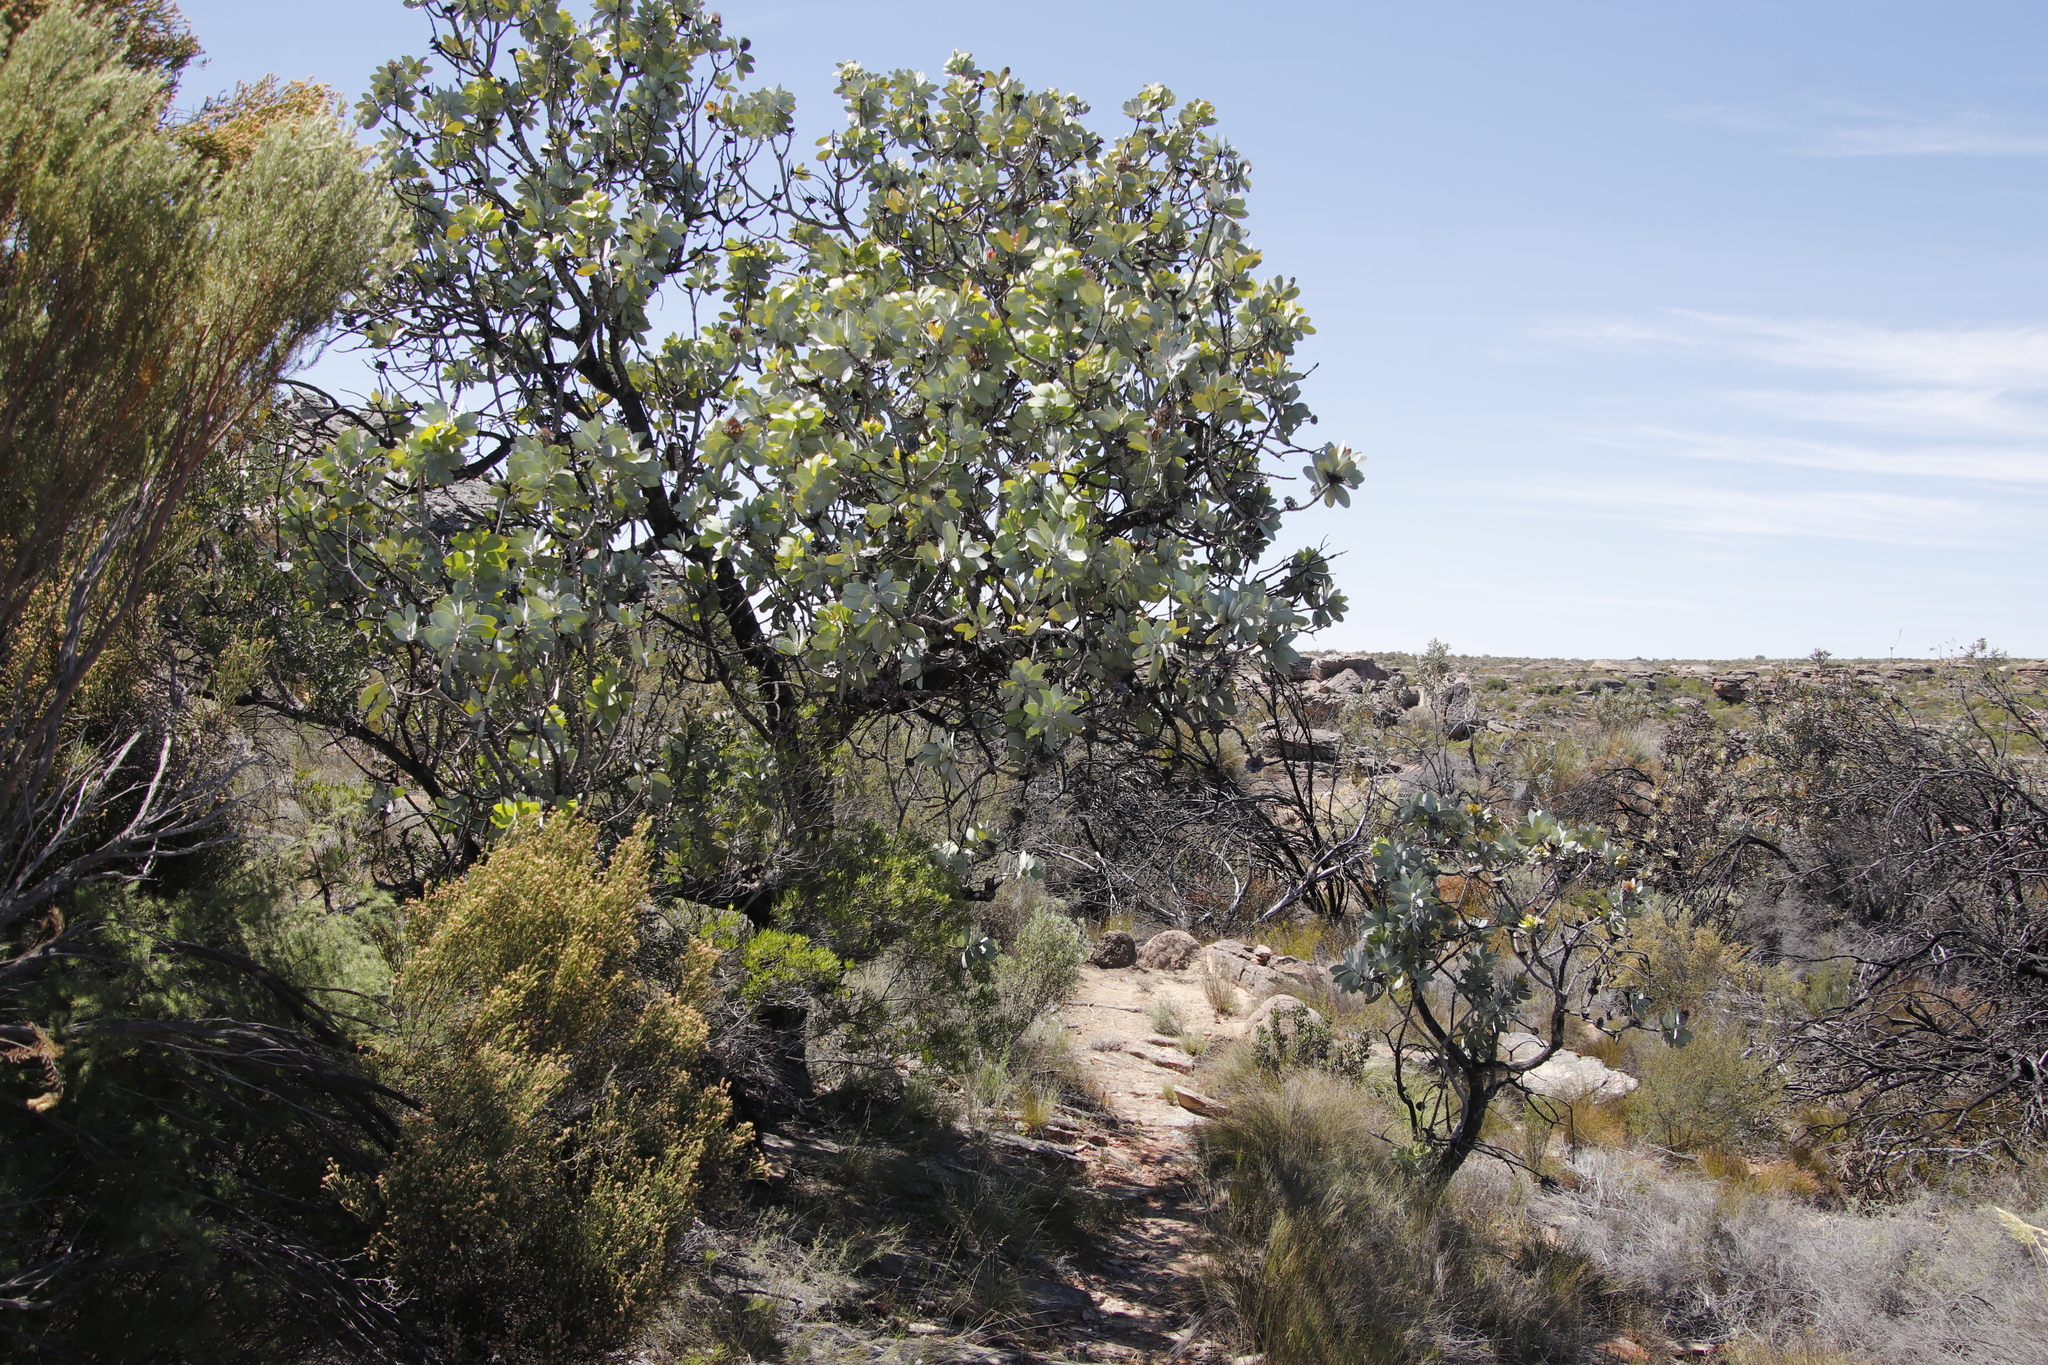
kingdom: Plantae
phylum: Tracheophyta
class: Magnoliopsida
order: Proteales
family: Proteaceae
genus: Protea
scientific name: Protea nitida
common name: Tree protea
